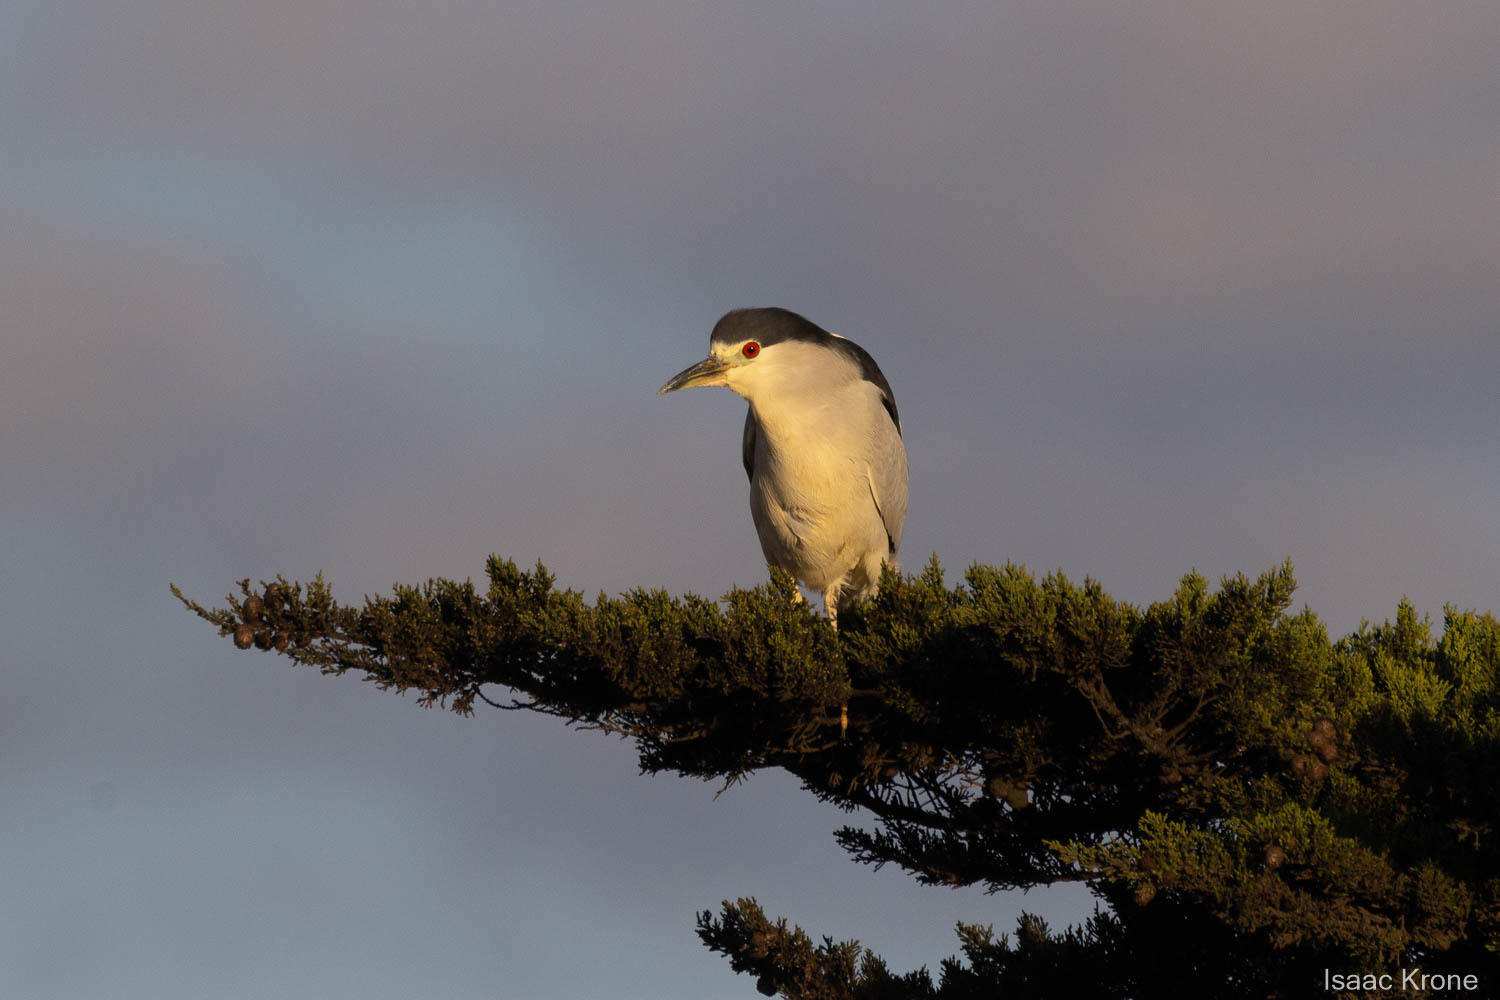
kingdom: Animalia
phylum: Chordata
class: Aves
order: Pelecaniformes
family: Ardeidae
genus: Nycticorax
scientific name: Nycticorax nycticorax
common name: Black-crowned night heron
